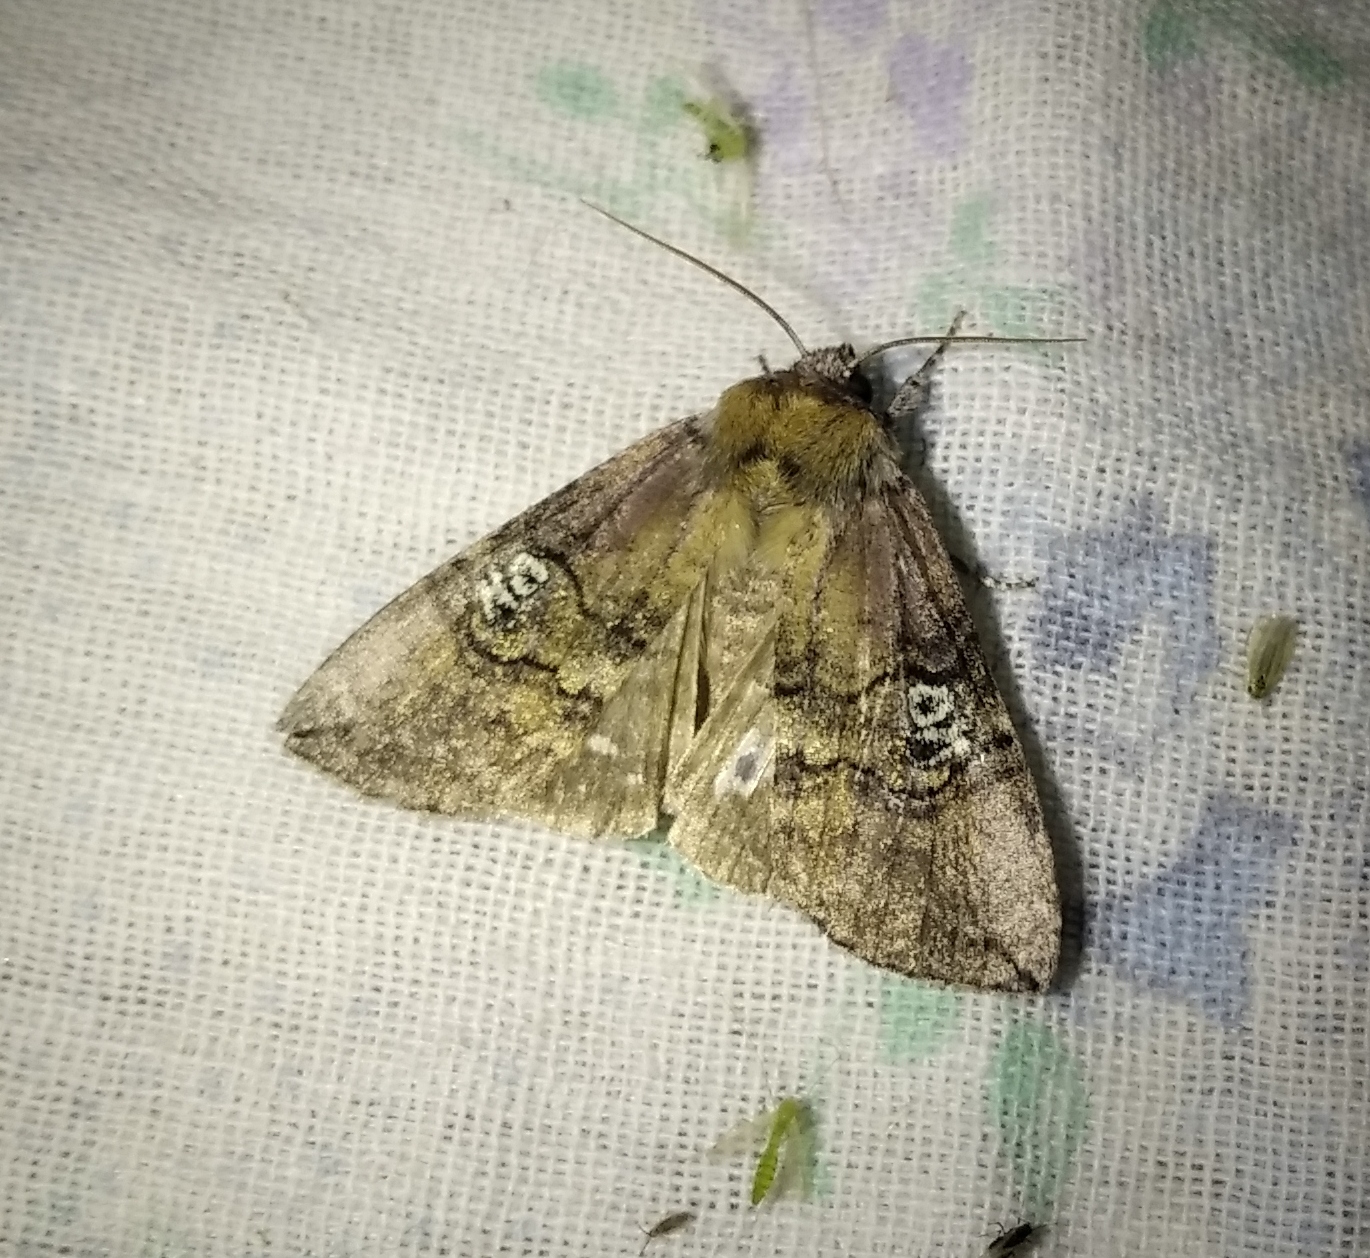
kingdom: Animalia
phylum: Arthropoda
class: Insecta
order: Lepidoptera
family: Drepanidae
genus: Tethea
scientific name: Tethea ocularis
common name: Figure of eighty
